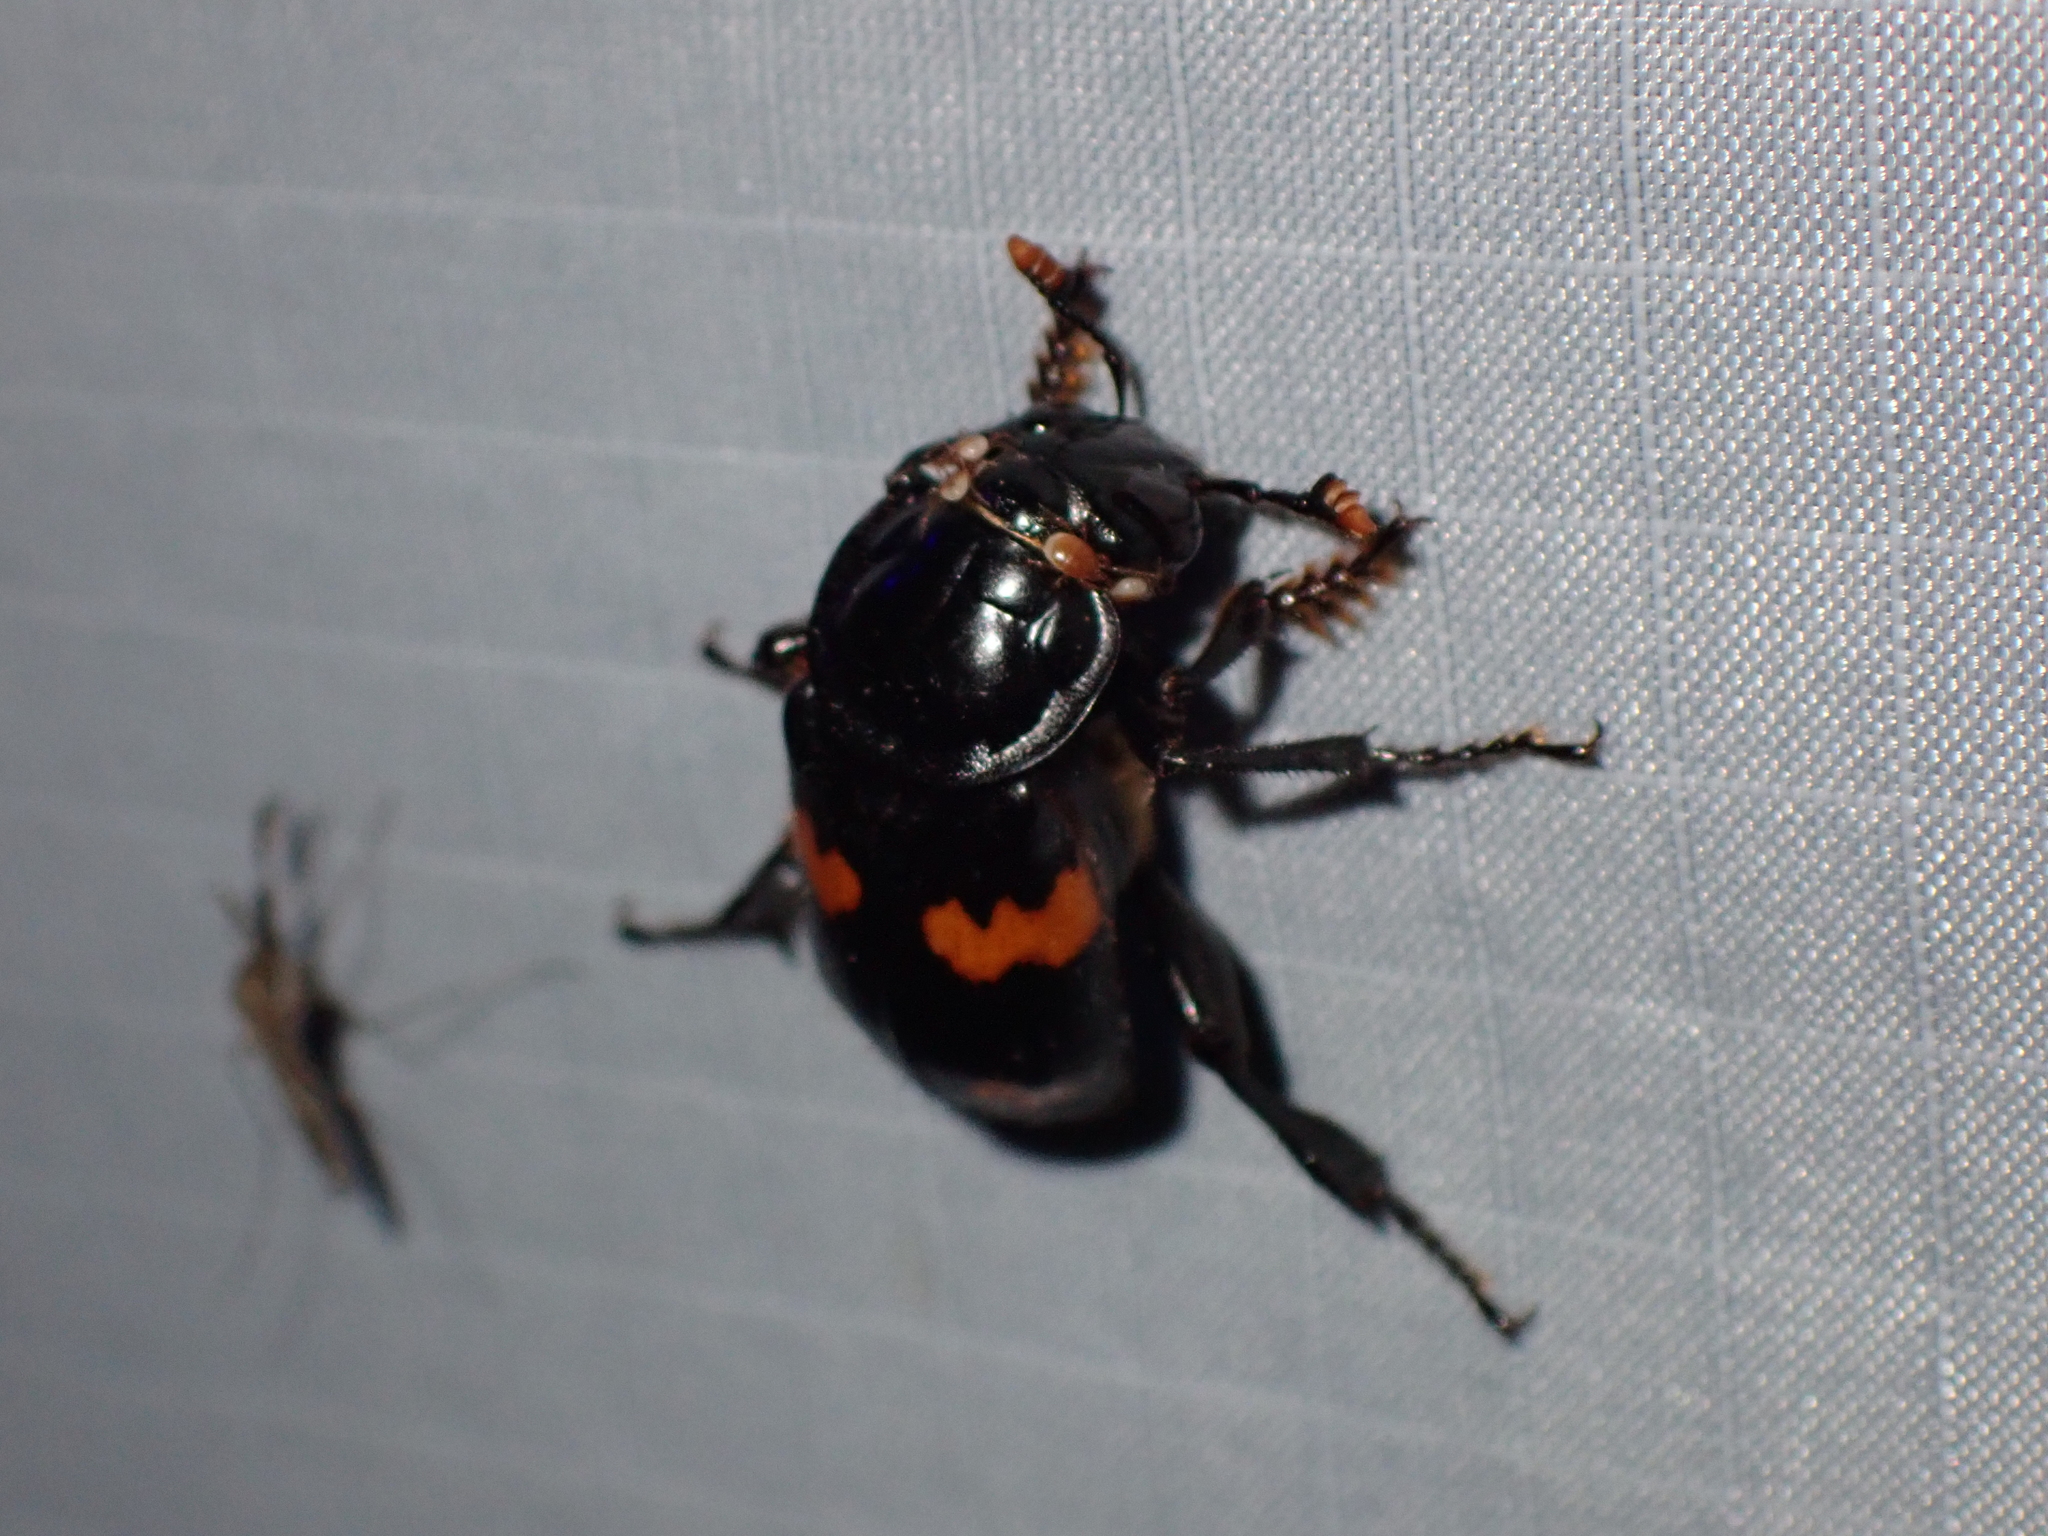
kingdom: Animalia
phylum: Arthropoda
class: Insecta
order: Coleoptera
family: Staphylinidae
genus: Nicrophorus
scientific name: Nicrophorus orbicollis
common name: Roundneck sexton beetle
